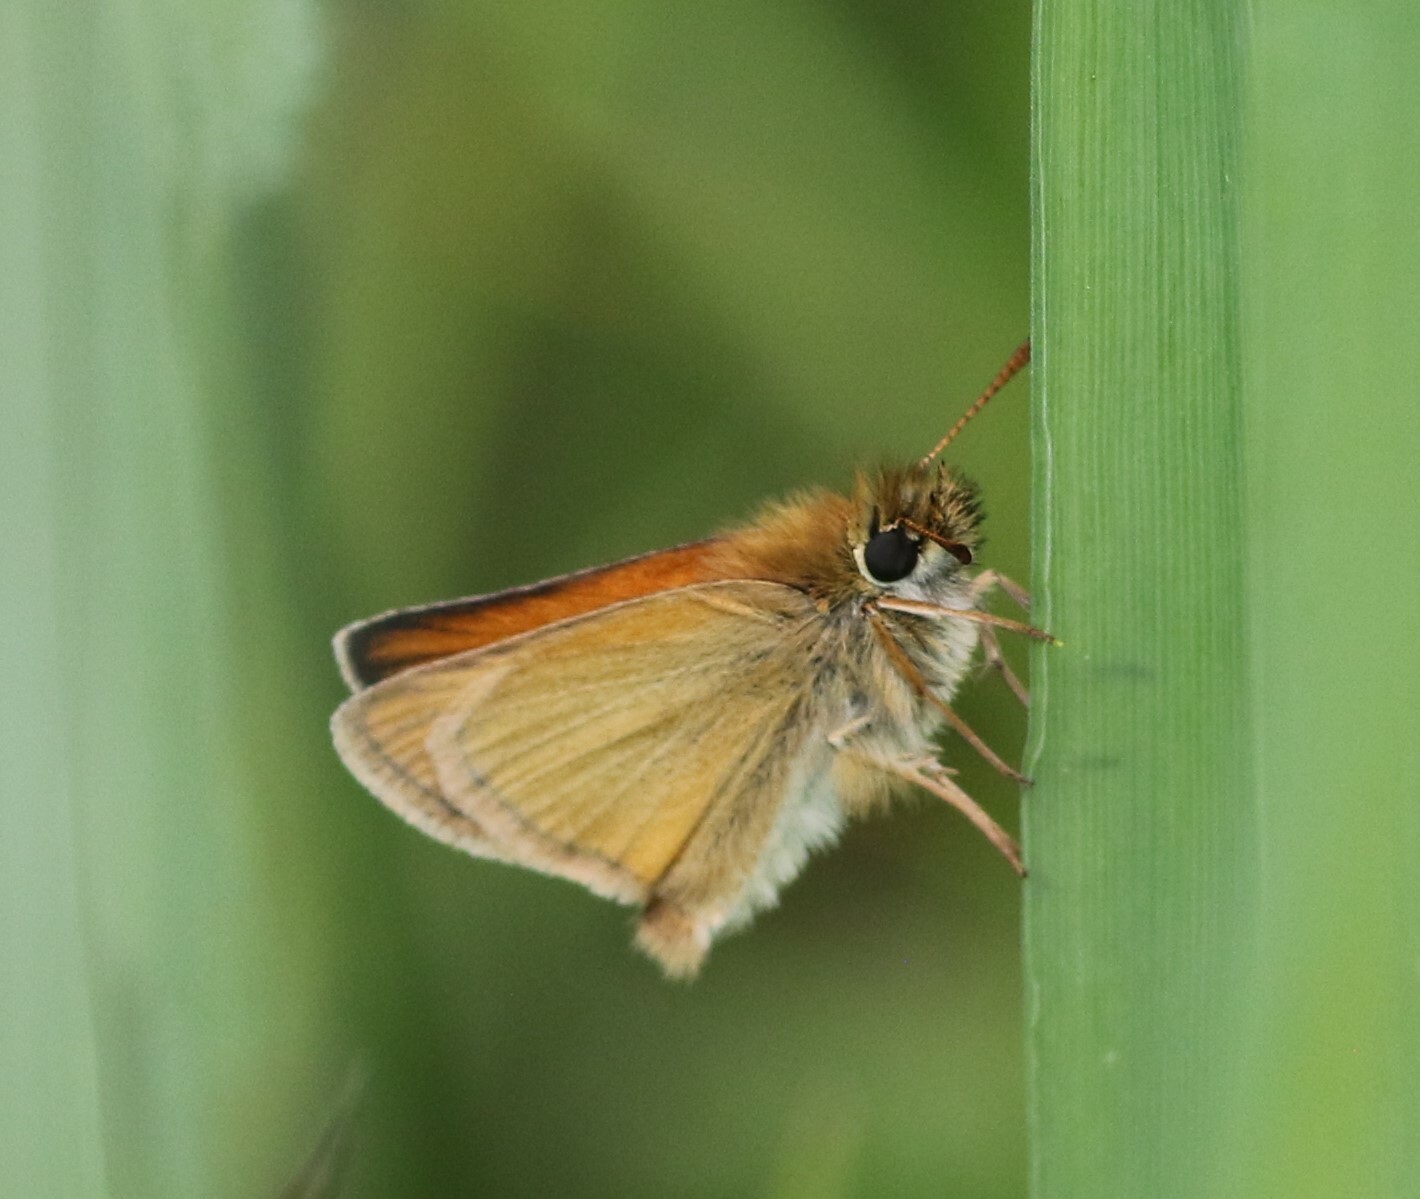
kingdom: Animalia
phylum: Arthropoda
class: Insecta
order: Lepidoptera
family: Hesperiidae
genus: Thymelicus
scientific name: Thymelicus lineola
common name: Essex skipper
